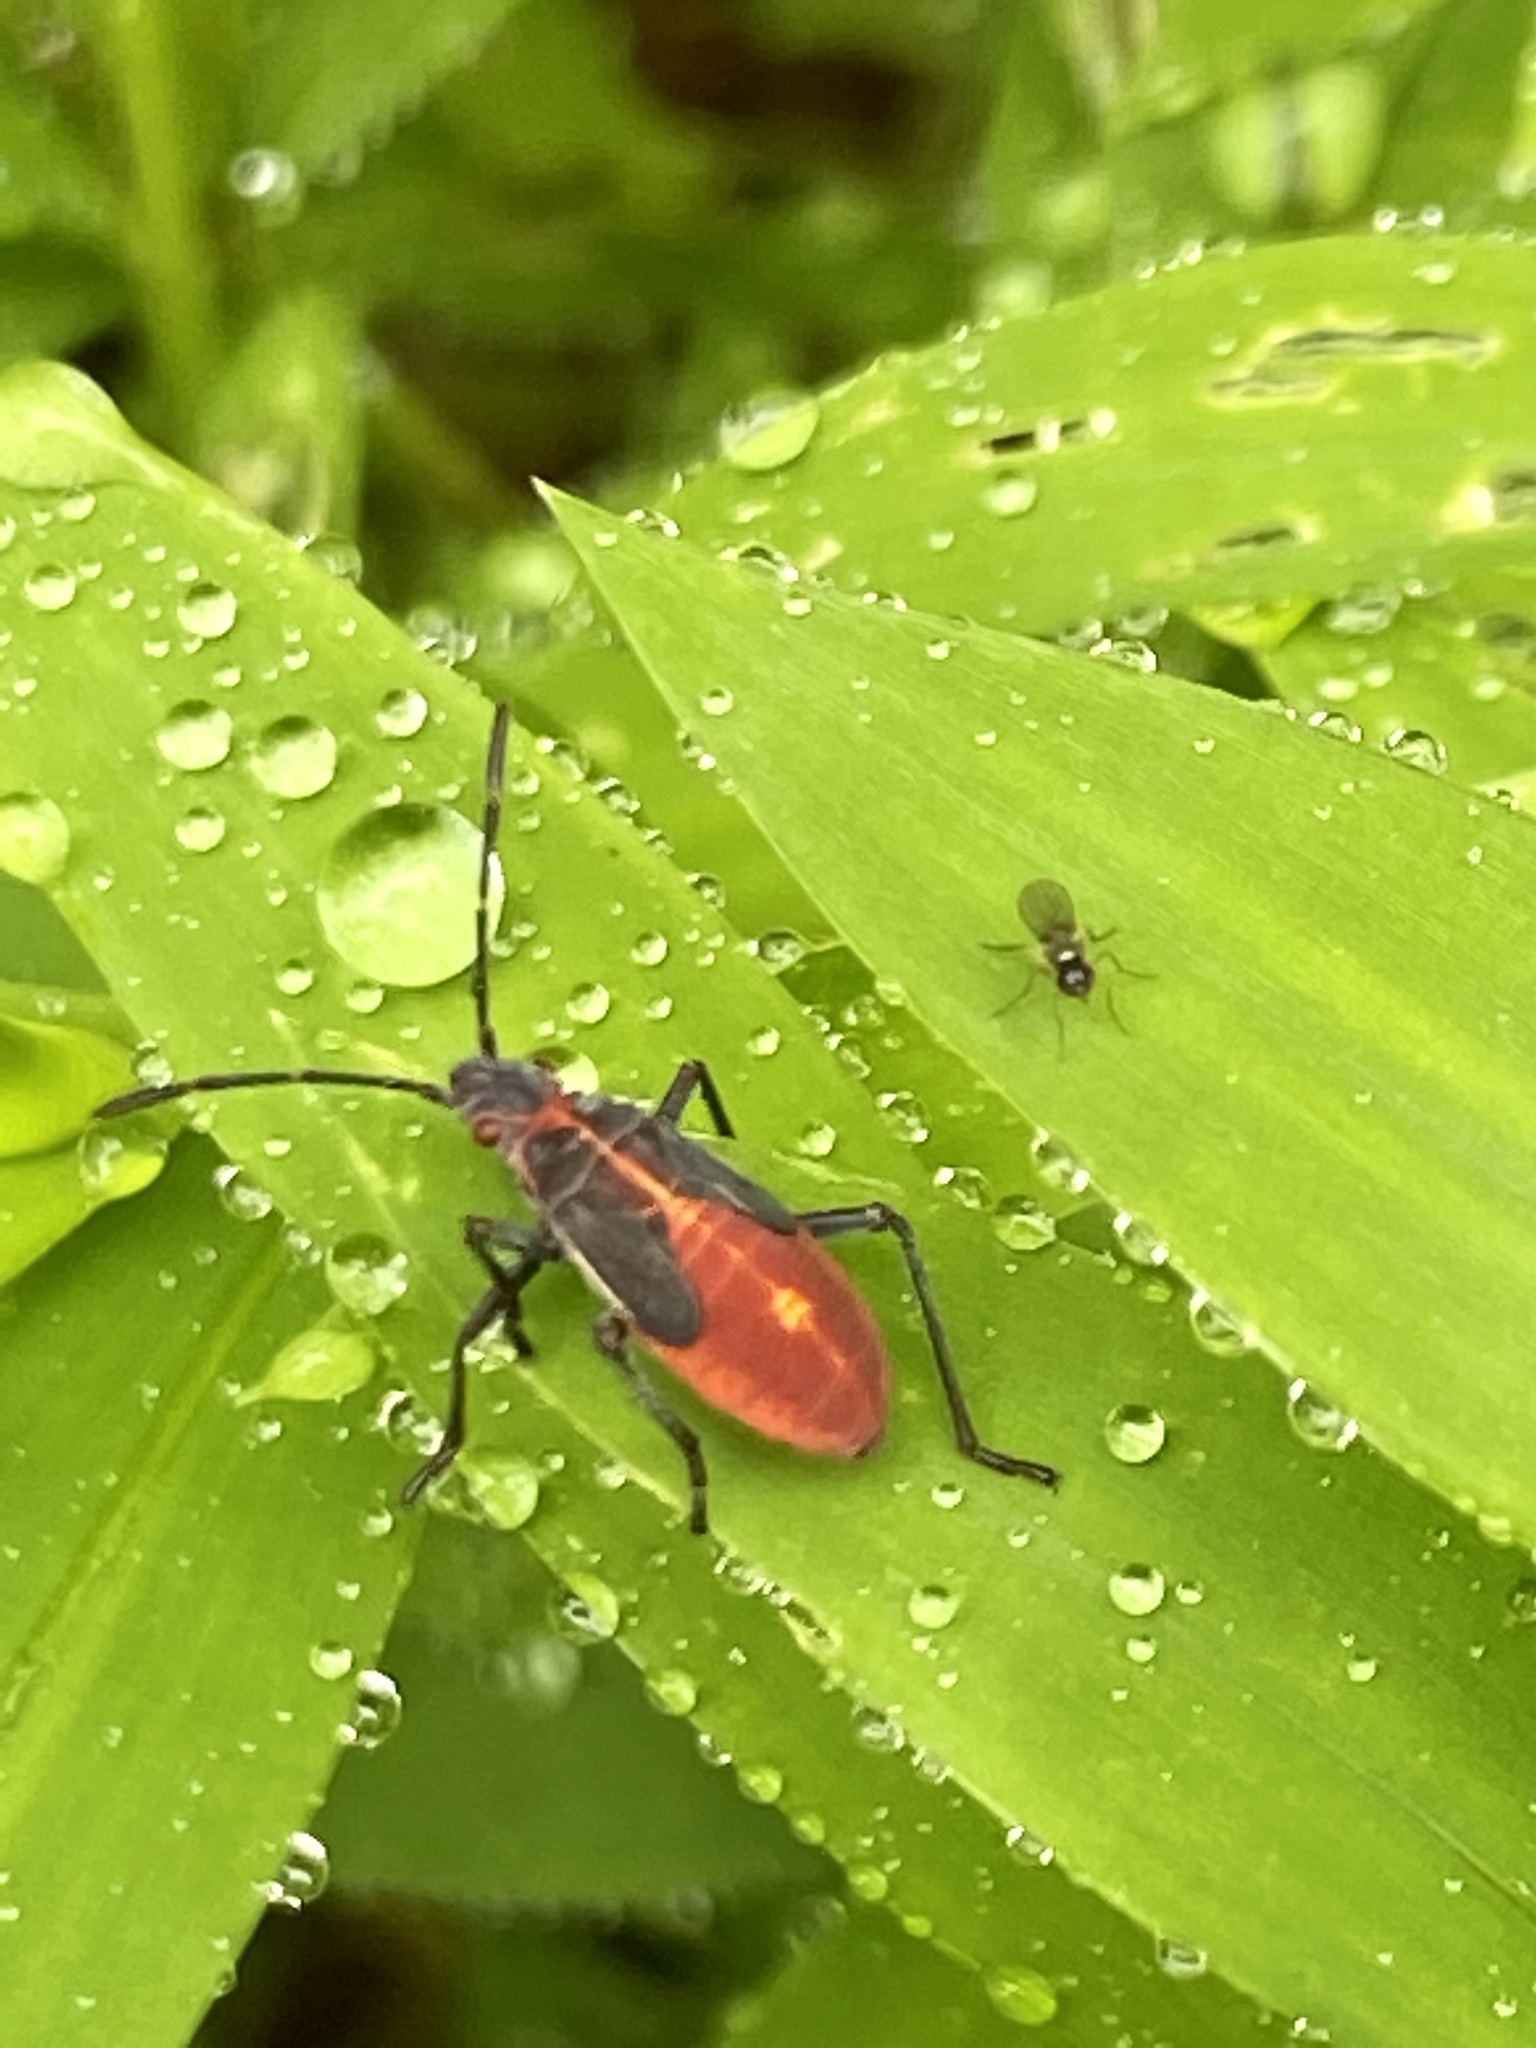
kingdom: Animalia
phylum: Arthropoda
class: Insecta
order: Hemiptera
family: Rhopalidae
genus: Boisea
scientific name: Boisea trivittata
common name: Boxelder bug
